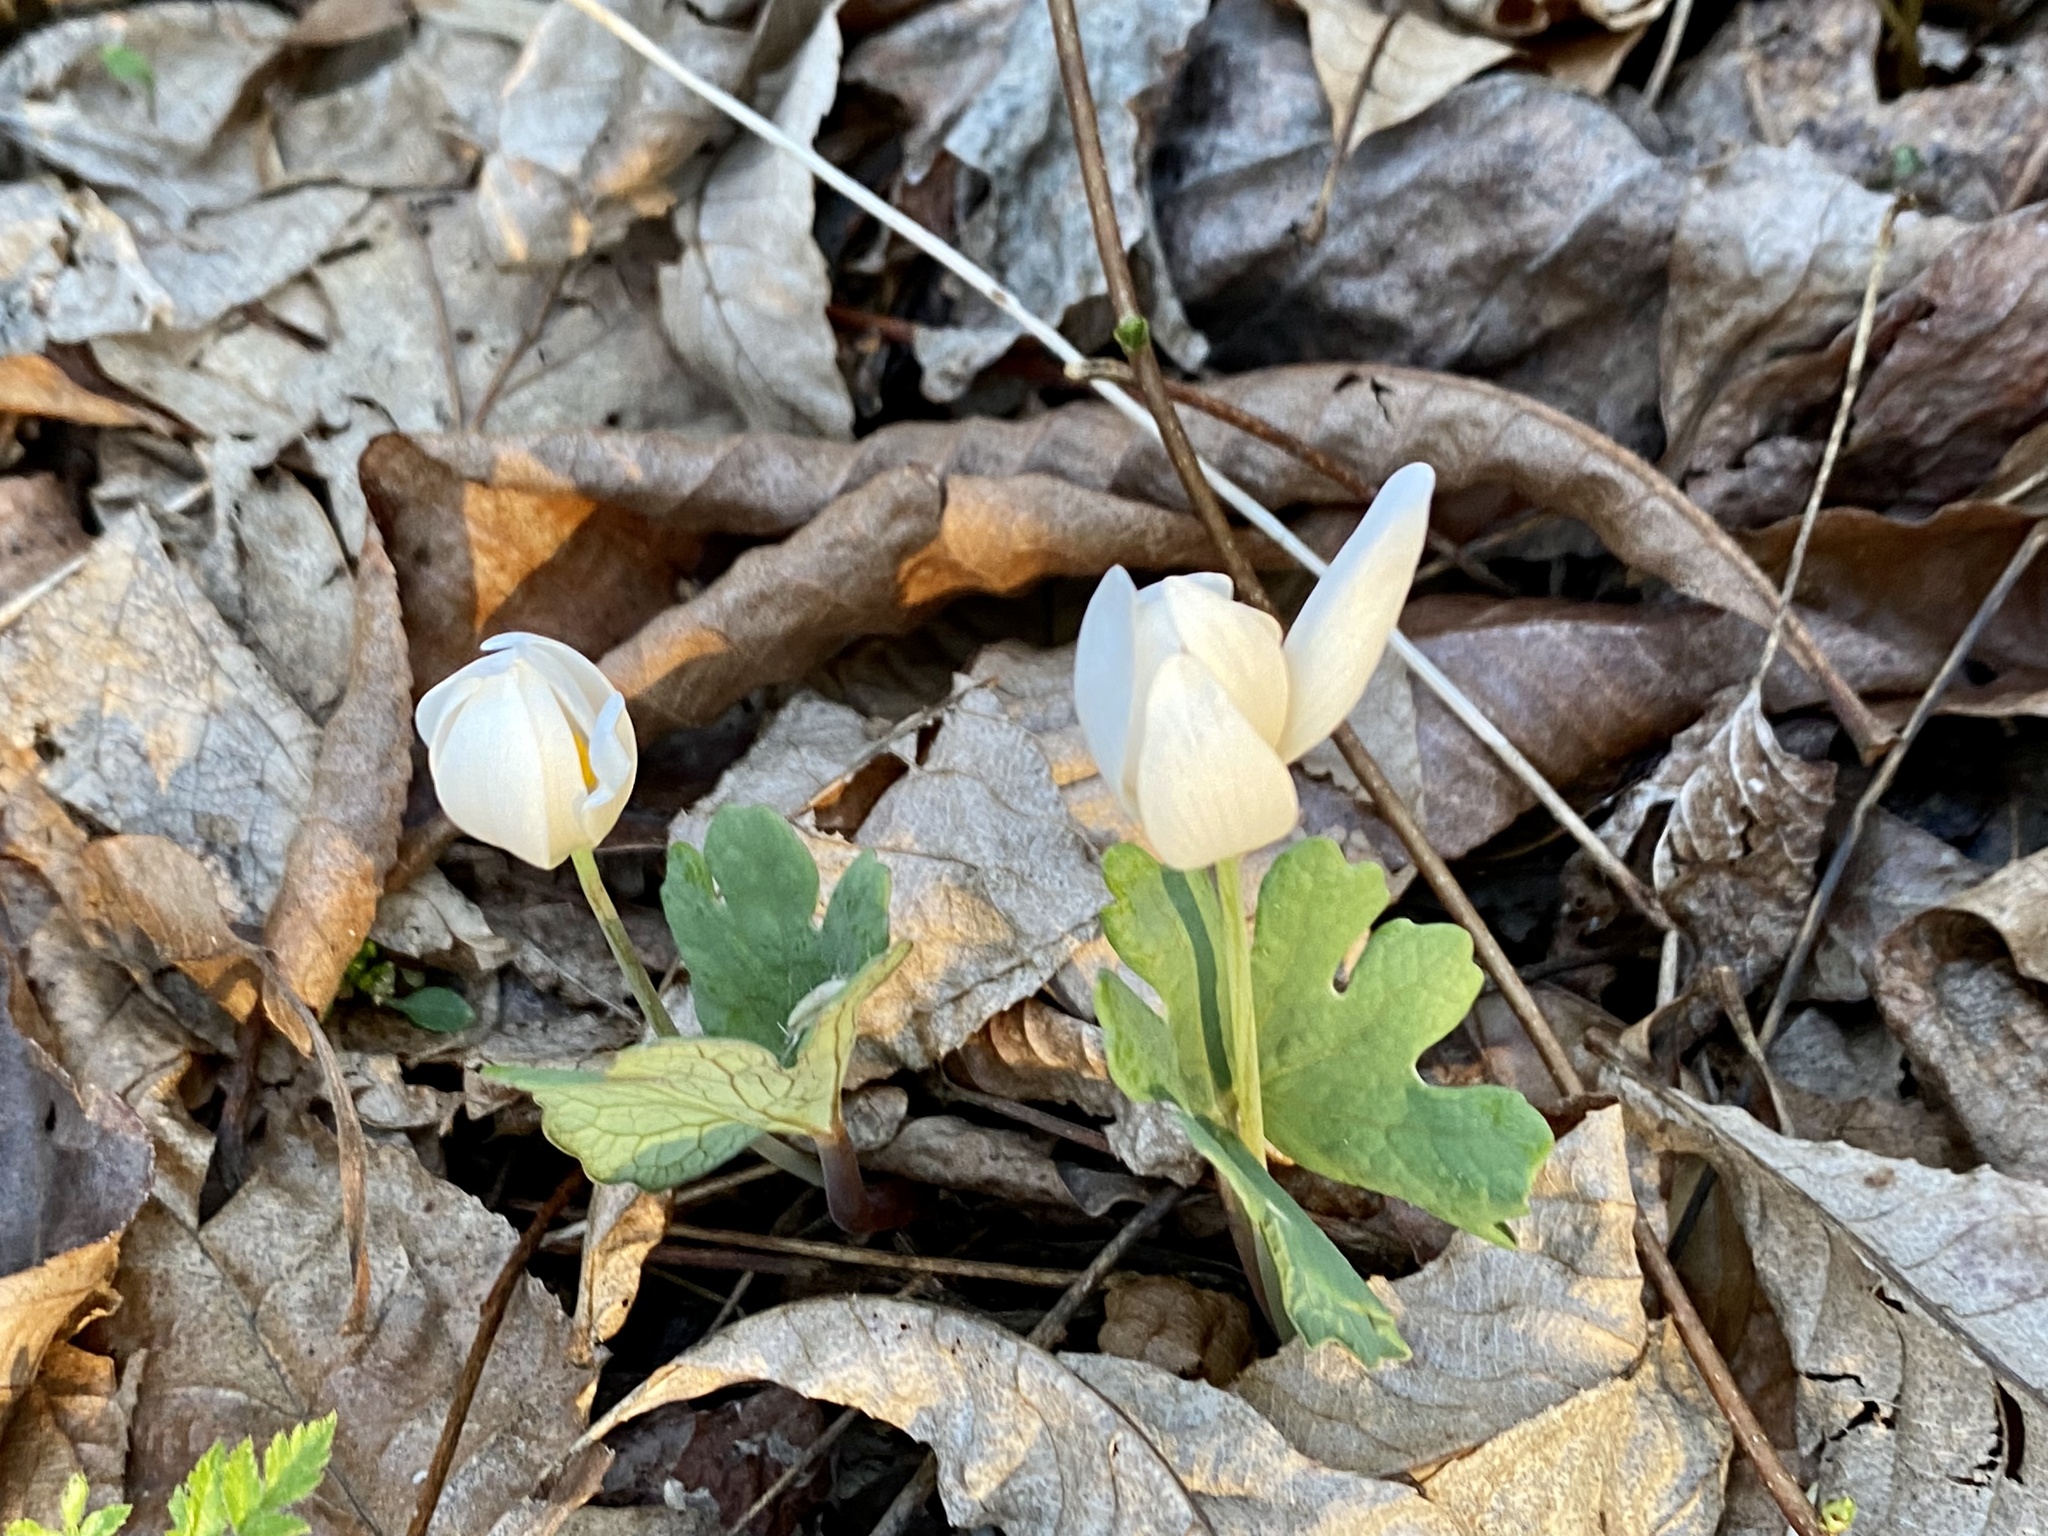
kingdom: Plantae
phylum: Tracheophyta
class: Magnoliopsida
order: Ranunculales
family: Papaveraceae
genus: Sanguinaria
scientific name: Sanguinaria canadensis
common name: Bloodroot
